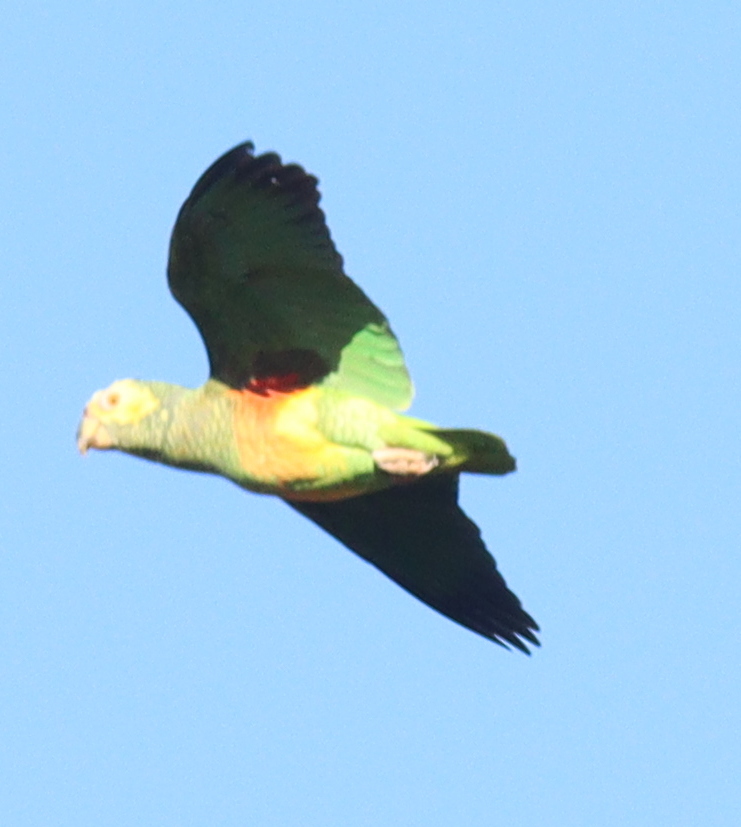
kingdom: Animalia
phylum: Chordata
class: Aves
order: Psittaciformes
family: Psittacidae
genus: Amazona
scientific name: Amazona xanthops
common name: Yellow-faced amazon
